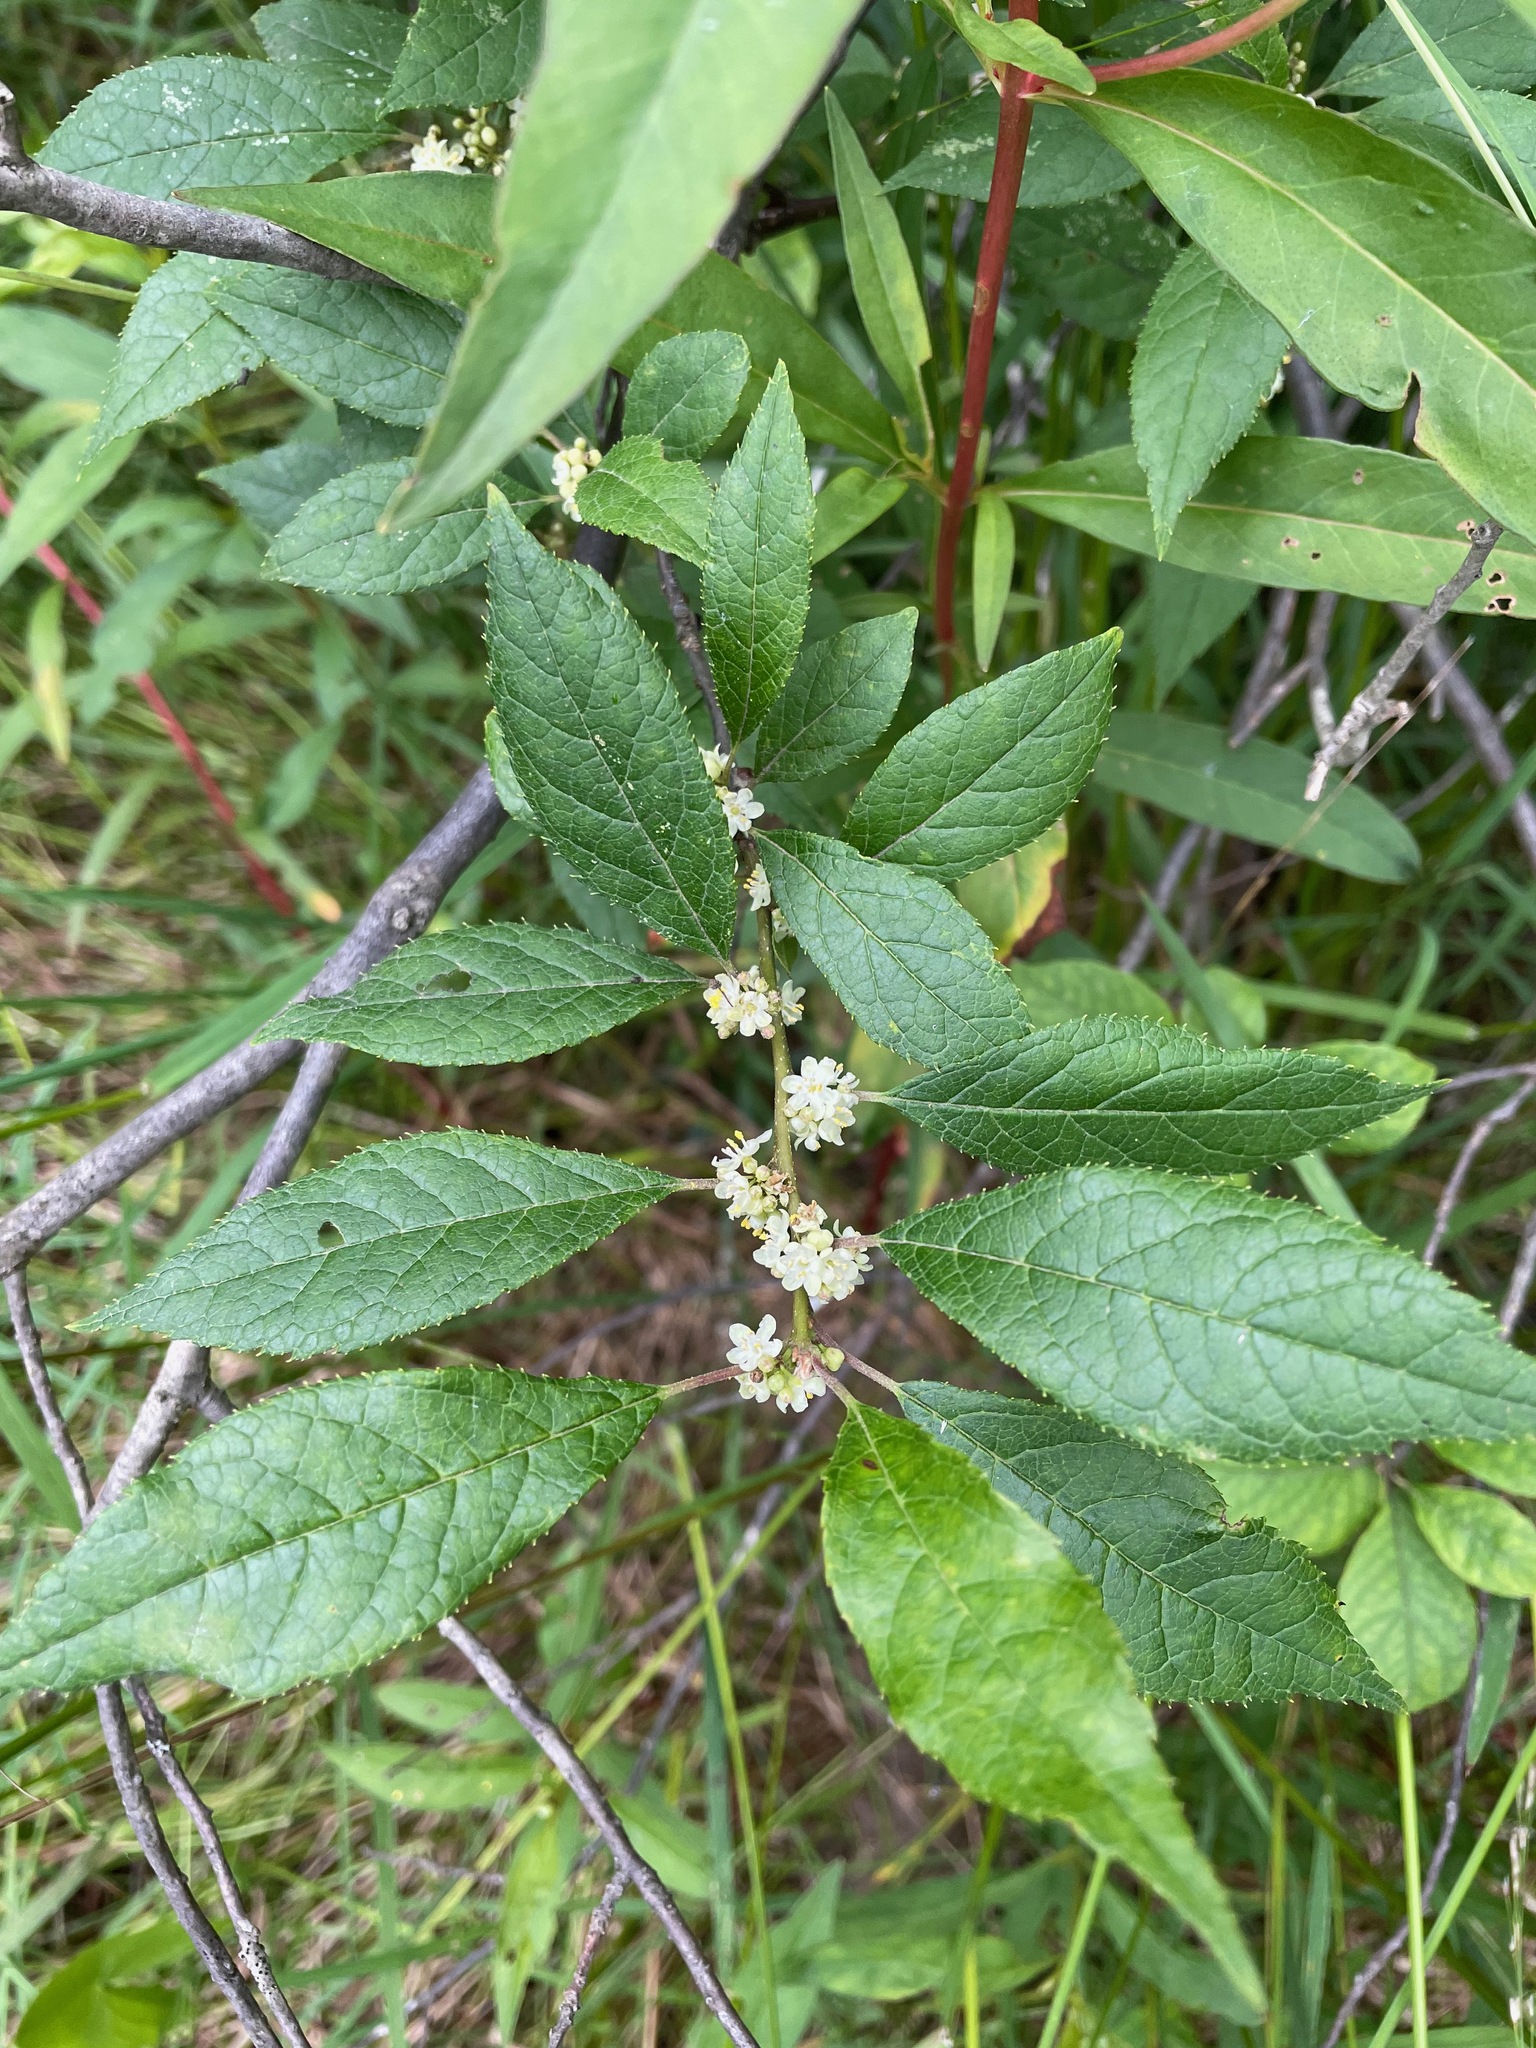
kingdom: Plantae
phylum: Tracheophyta
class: Magnoliopsida
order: Aquifoliales
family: Aquifoliaceae
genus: Ilex
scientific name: Ilex verticillata
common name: Virginia winterberry
